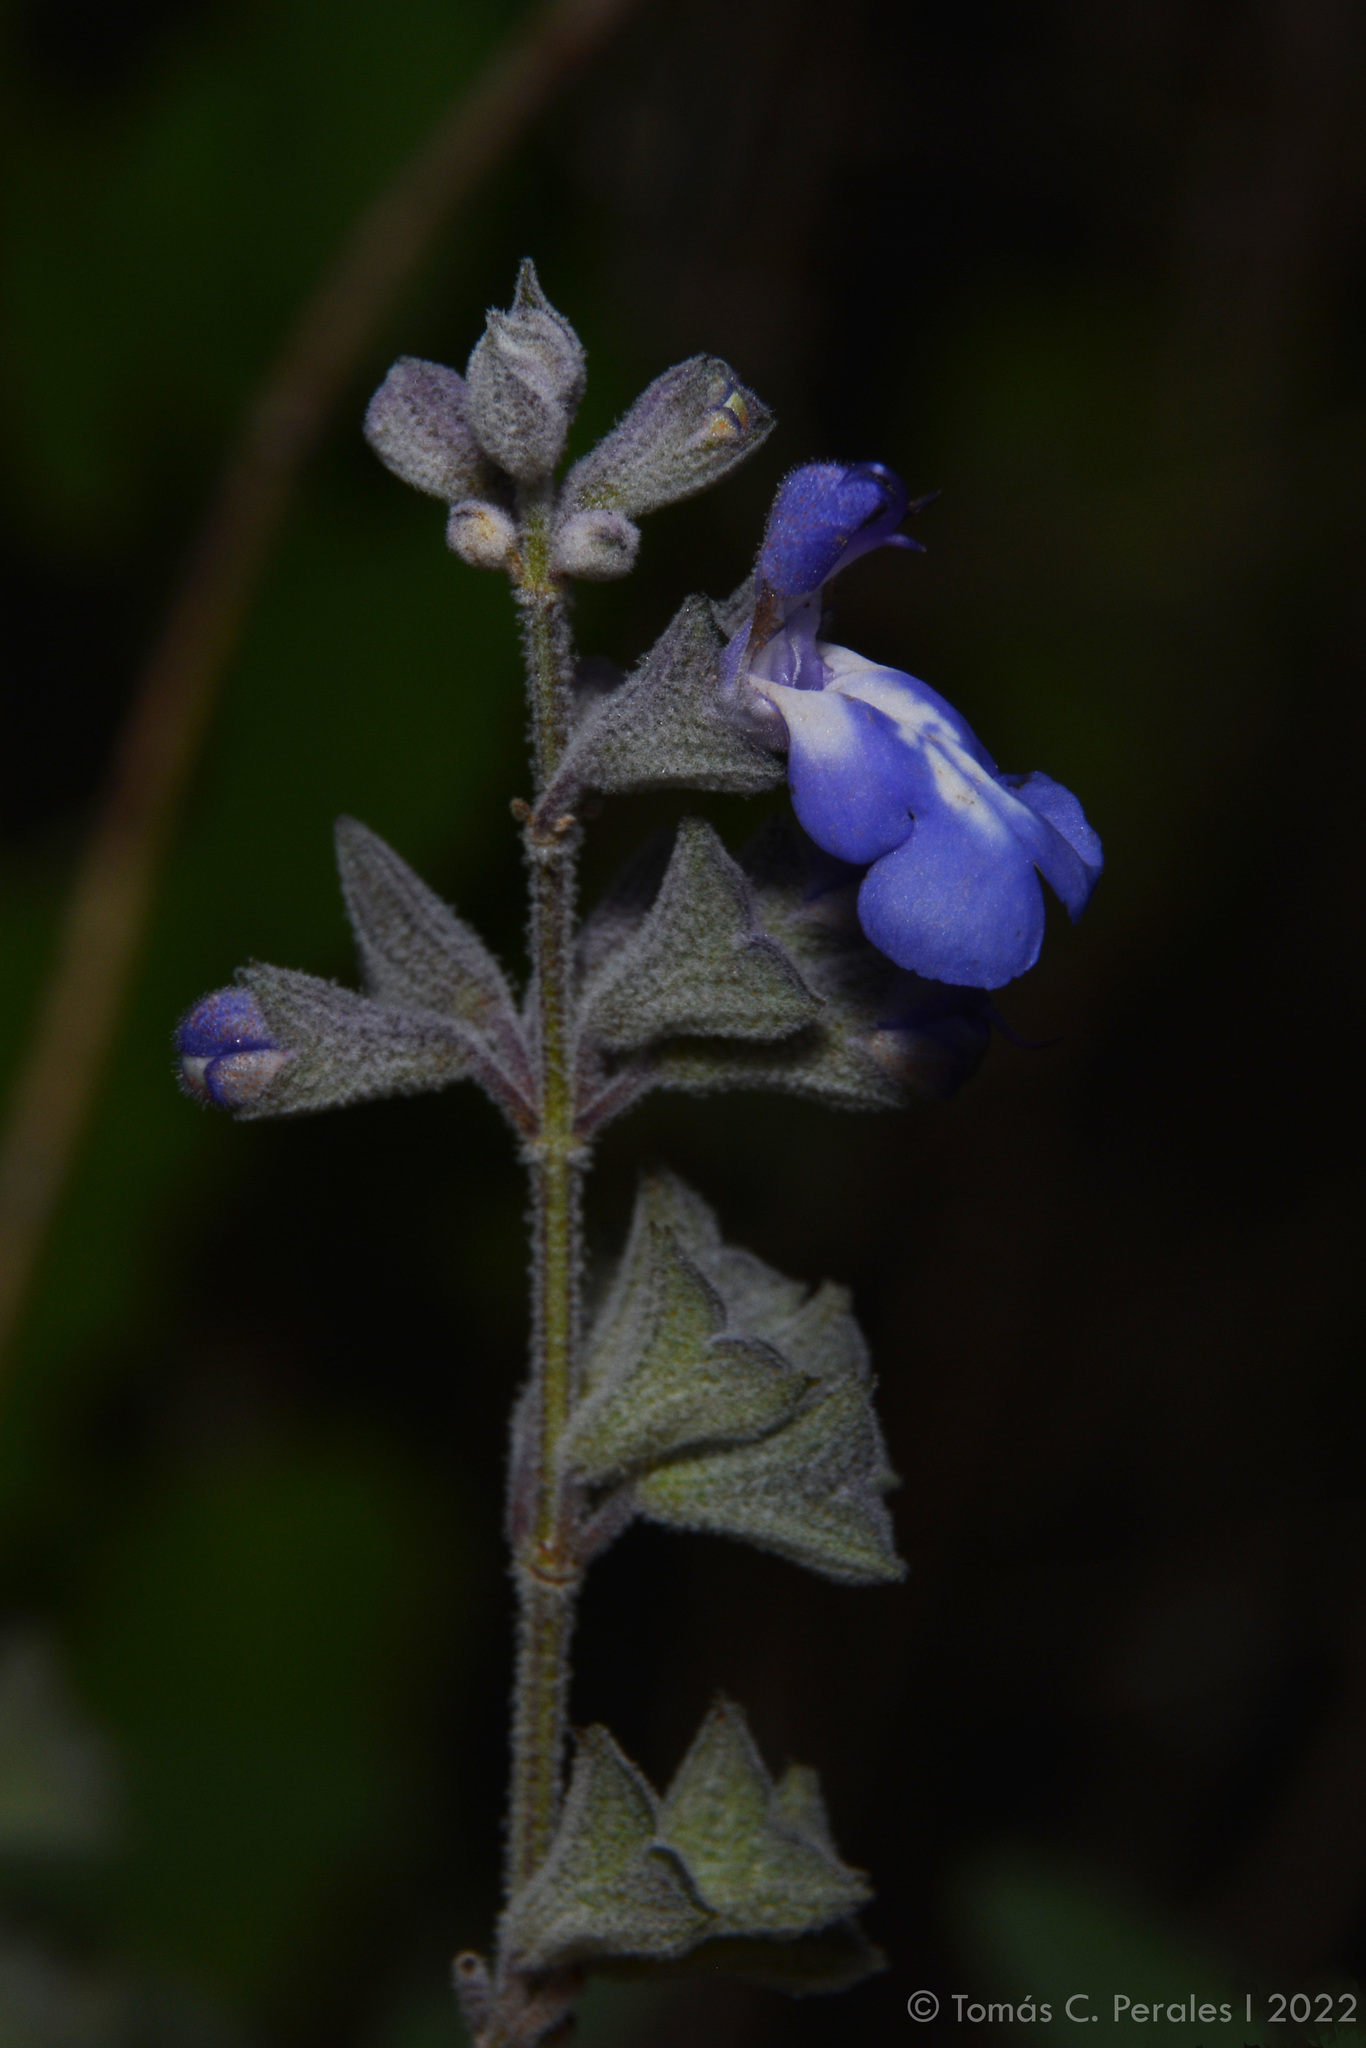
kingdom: Plantae
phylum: Tracheophyta
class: Magnoliopsida
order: Lamiales
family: Lamiaceae
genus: Salvia
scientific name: Salvia cuspidata
